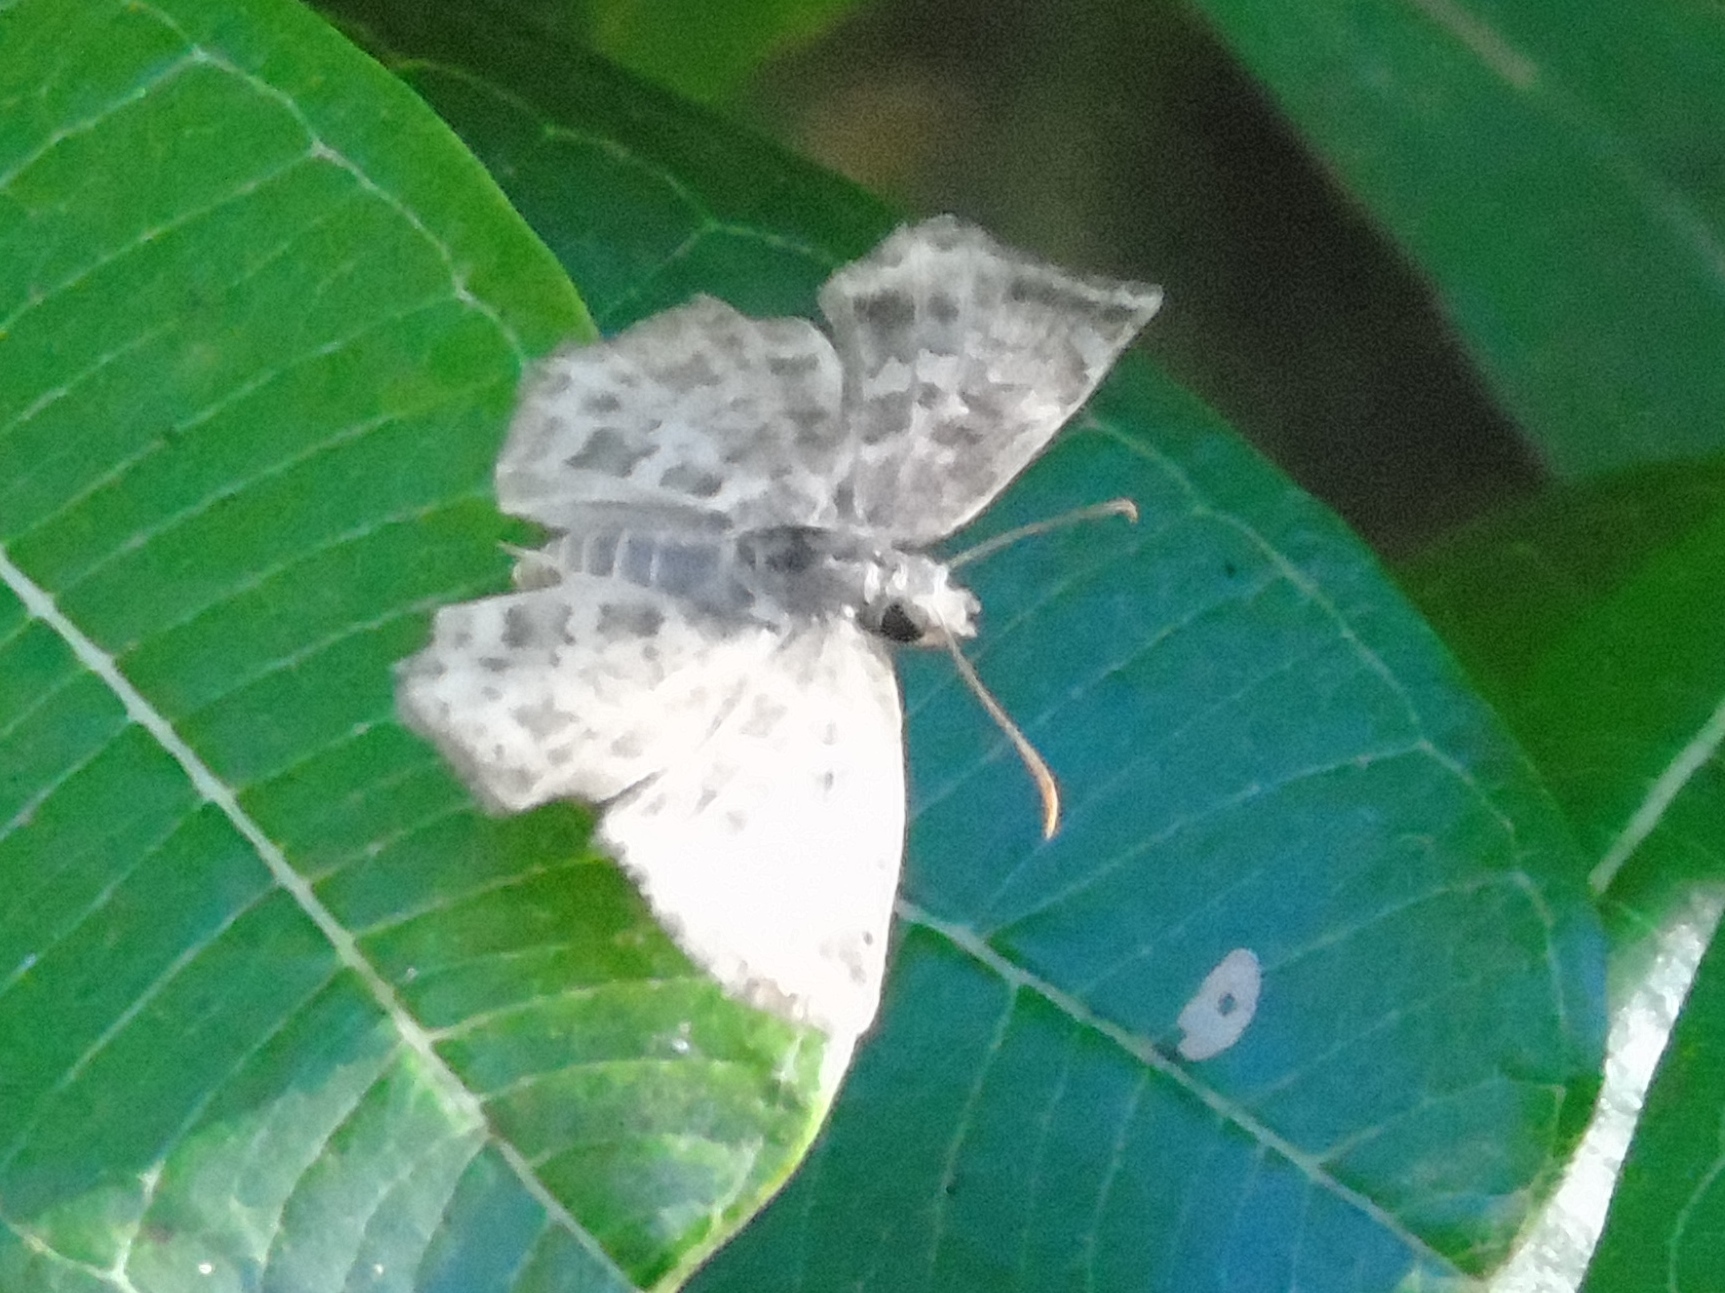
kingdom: Animalia
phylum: Arthropoda
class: Insecta
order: Lepidoptera
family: Hesperiidae
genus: Pyrginae
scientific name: Pyrginae
